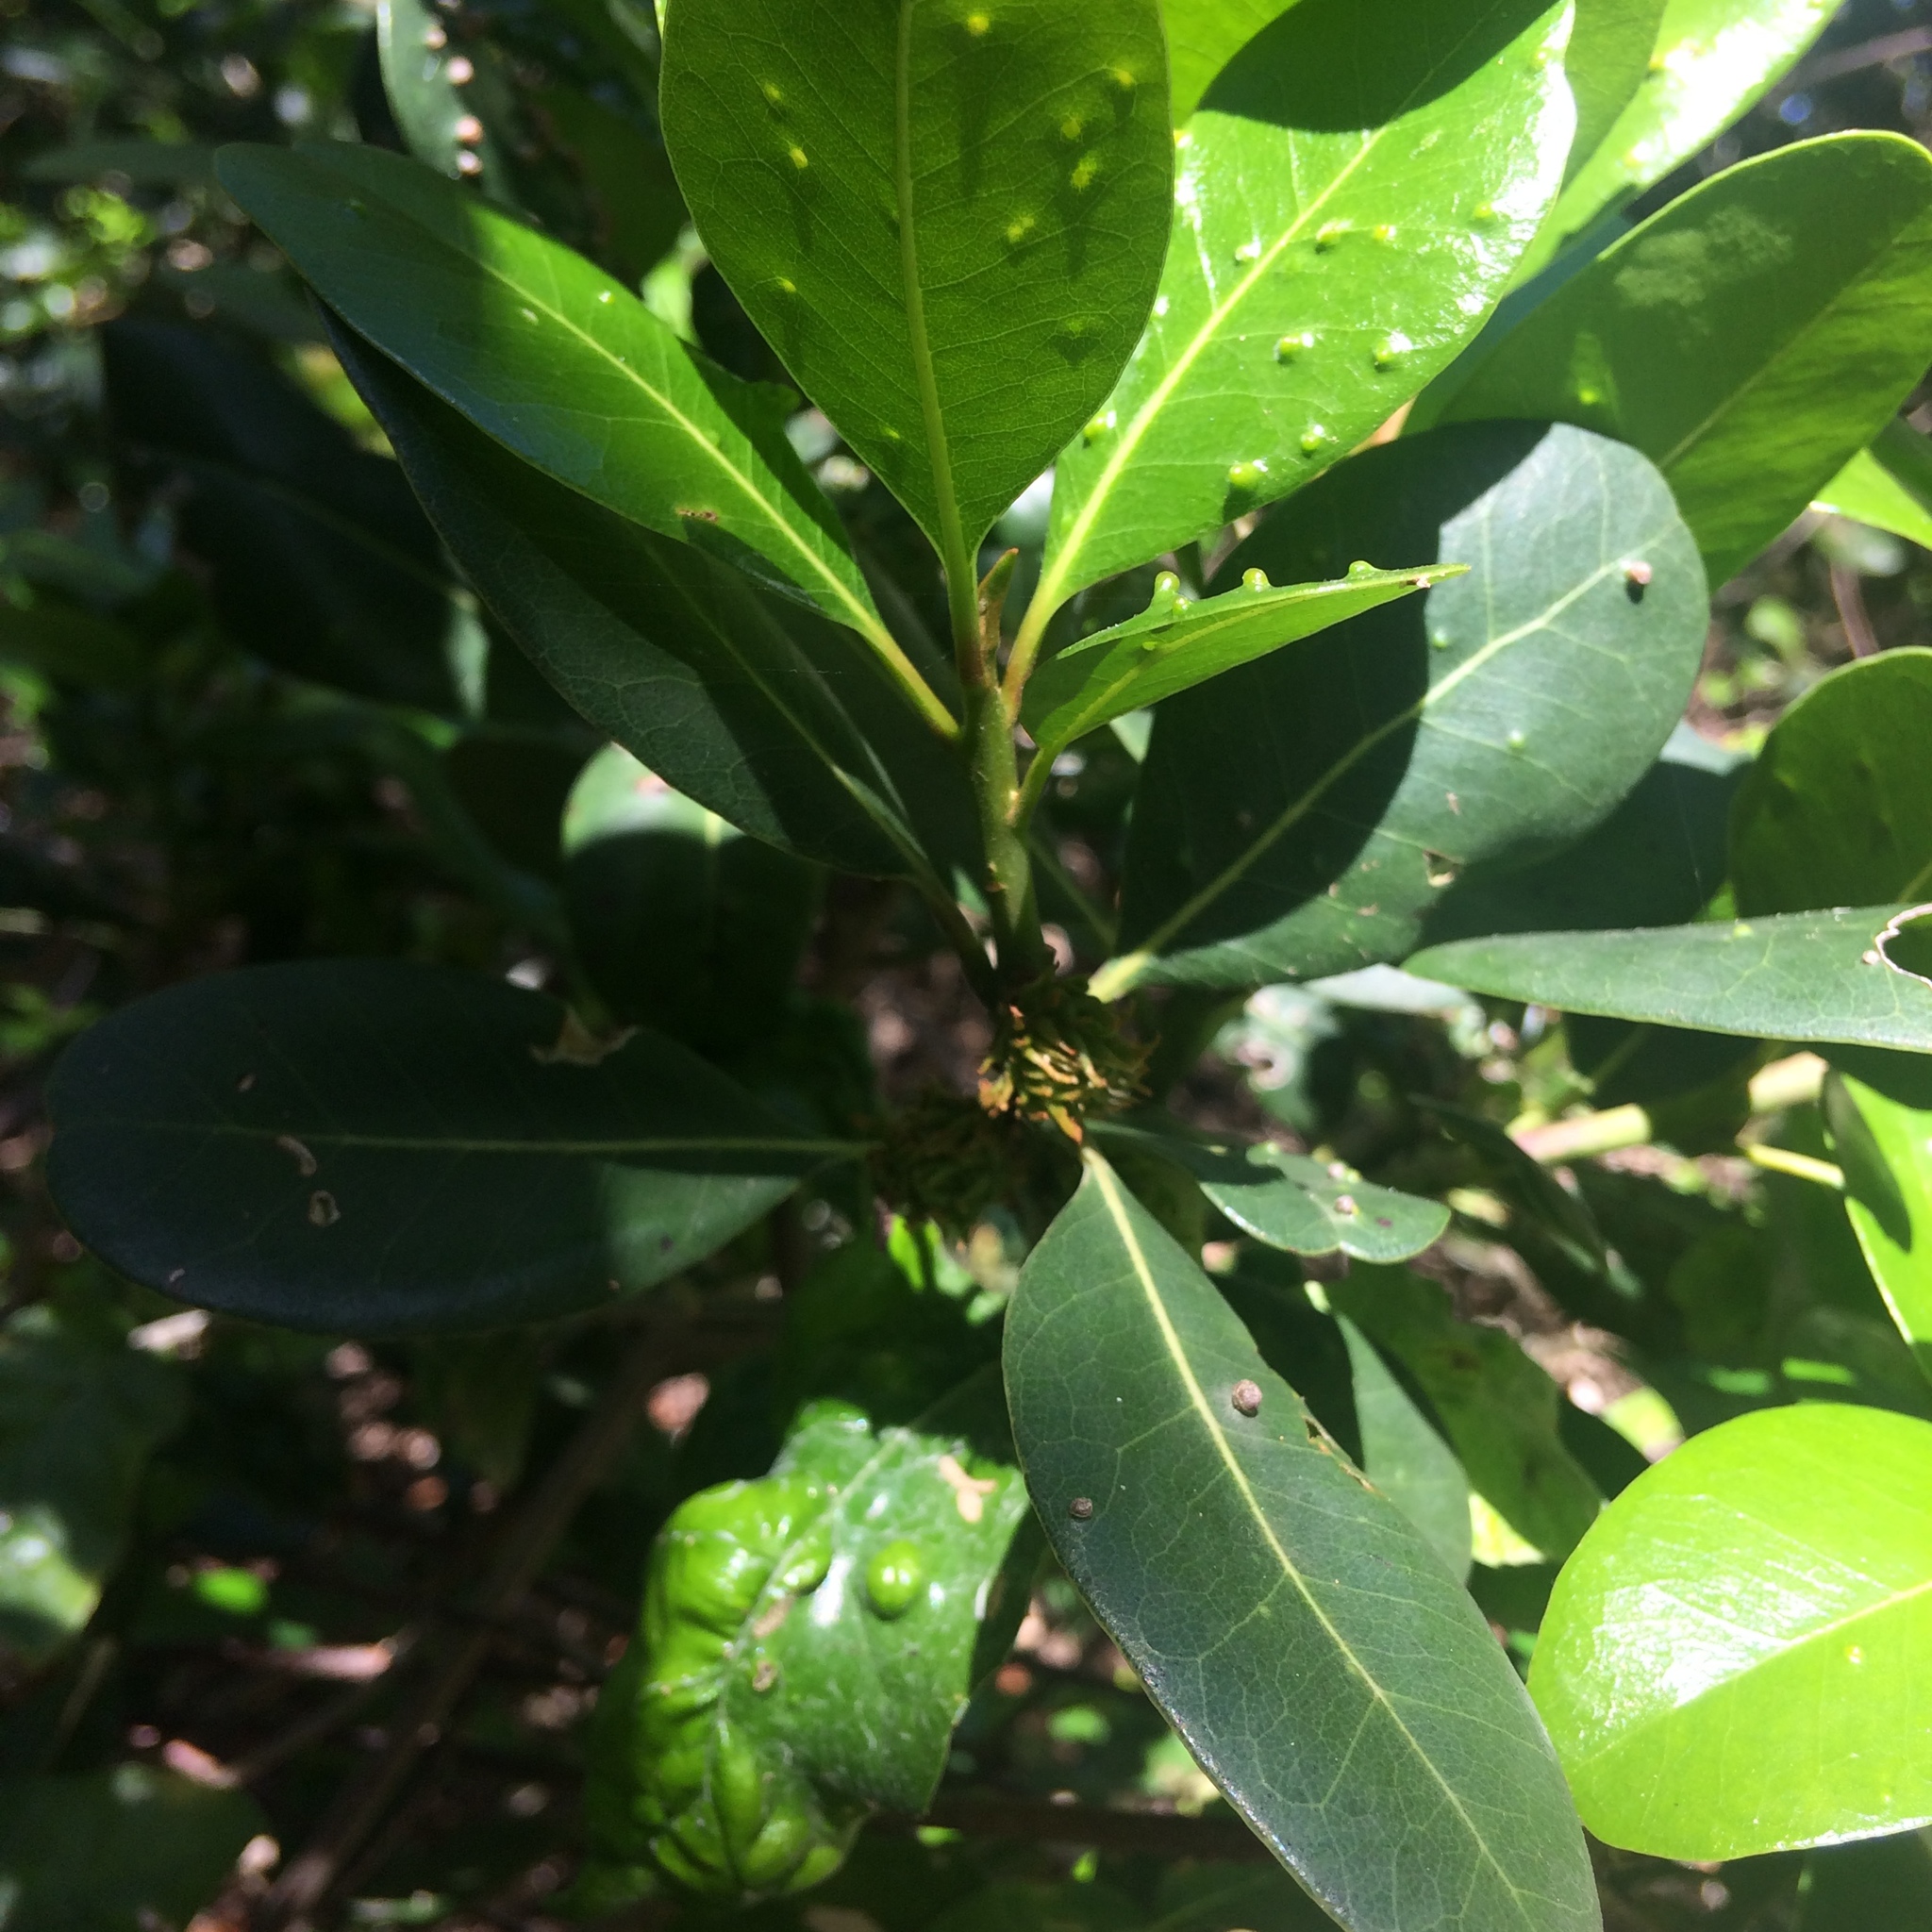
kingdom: Plantae
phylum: Tracheophyta
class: Magnoliopsida
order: Ericales
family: Sapotaceae
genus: Sideroxylon
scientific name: Sideroxylon inerme
